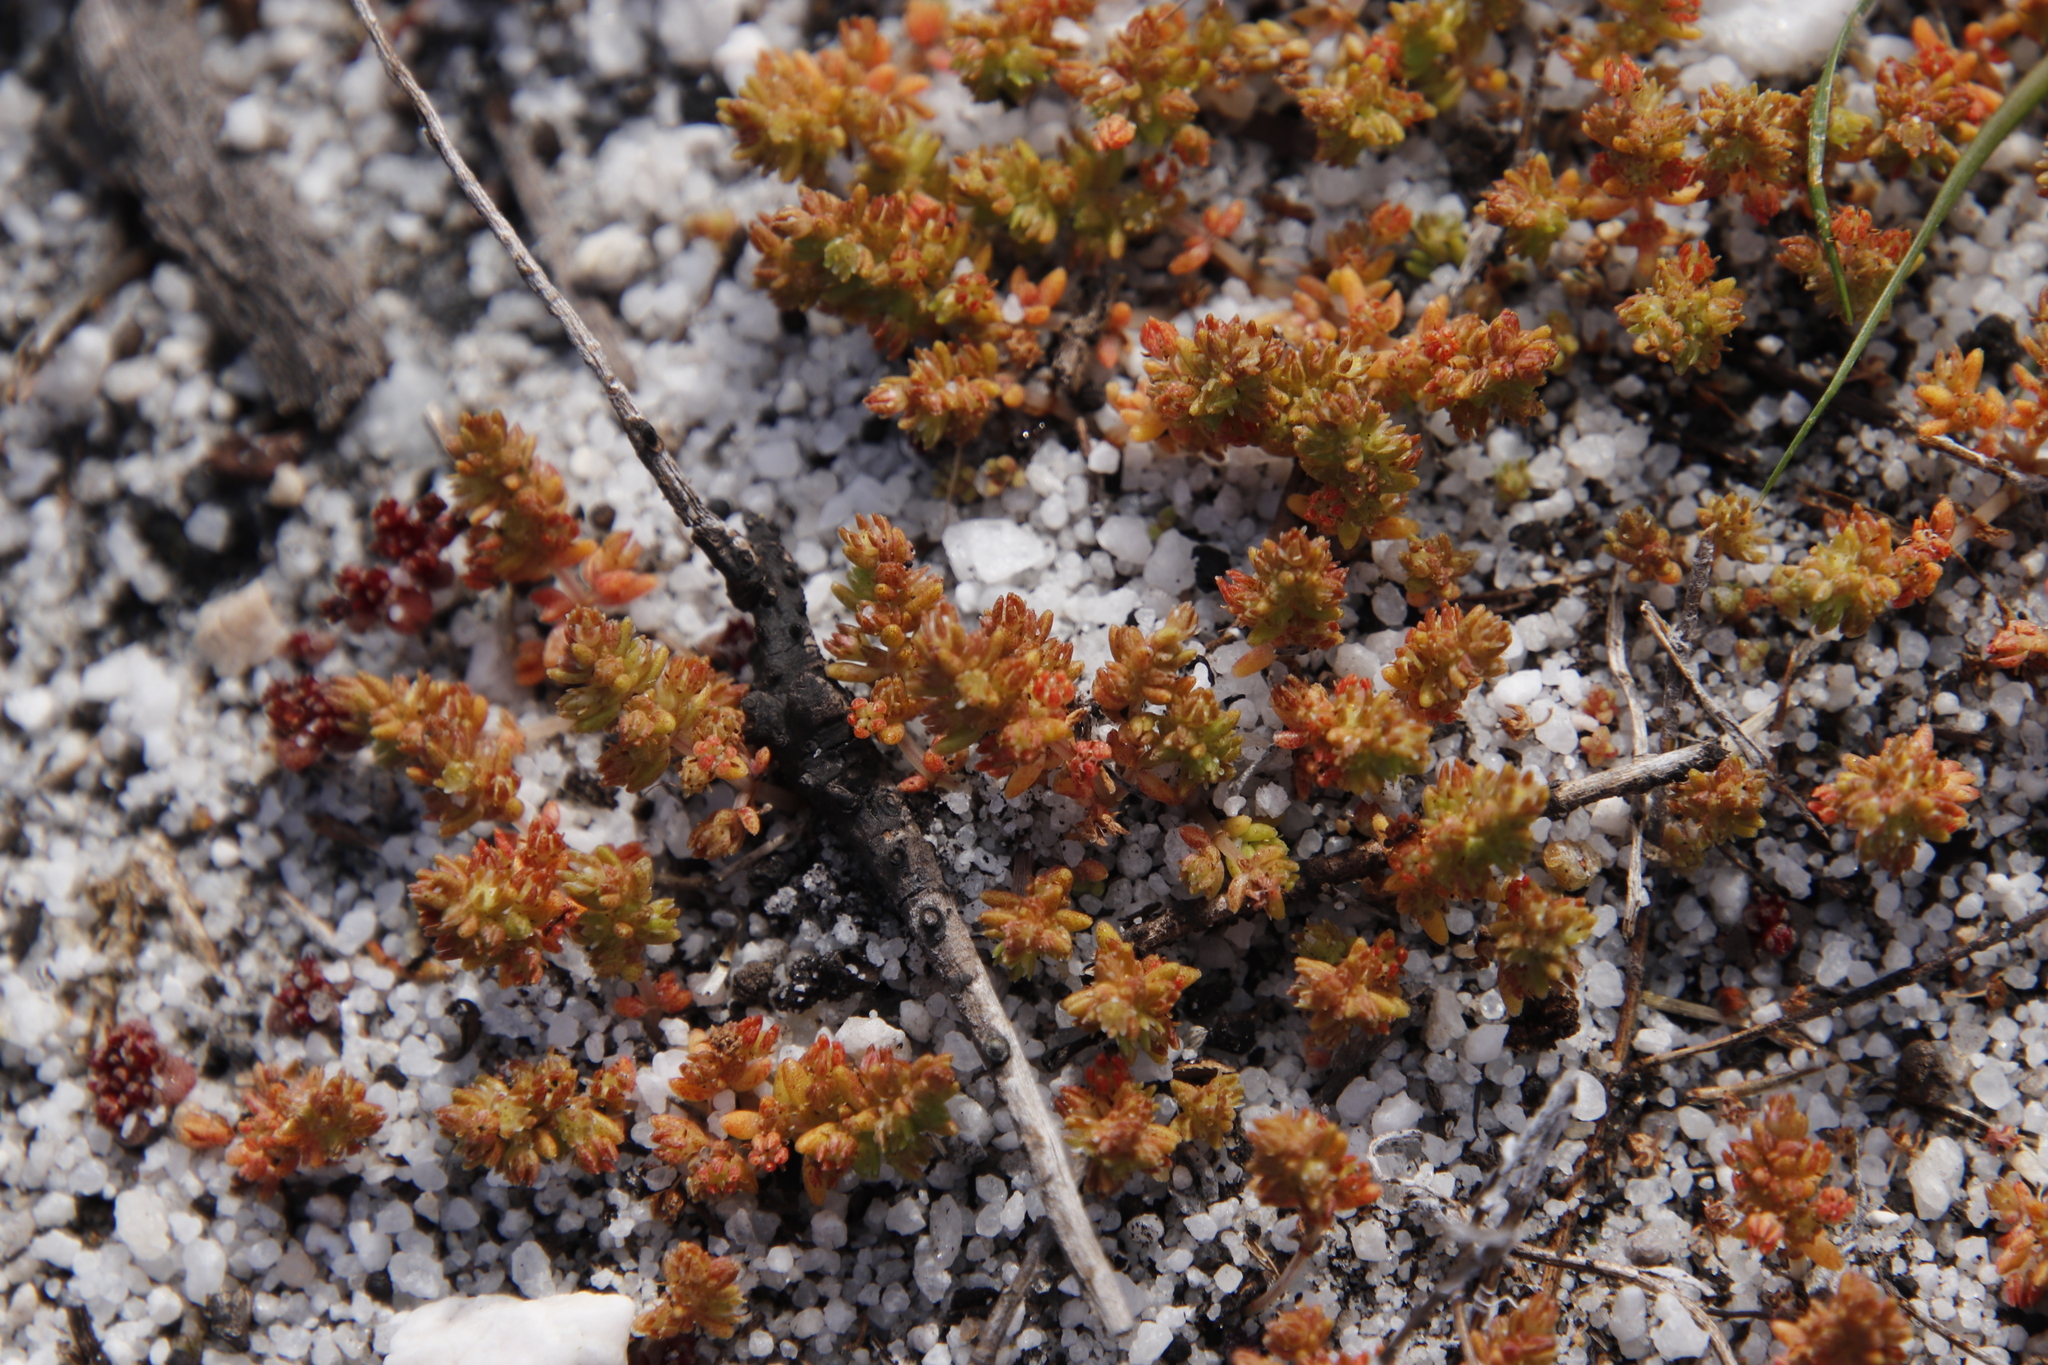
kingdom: Plantae
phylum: Tracheophyta
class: Magnoliopsida
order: Saxifragales
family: Crassulaceae
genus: Crassula
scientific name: Crassula glomerata
